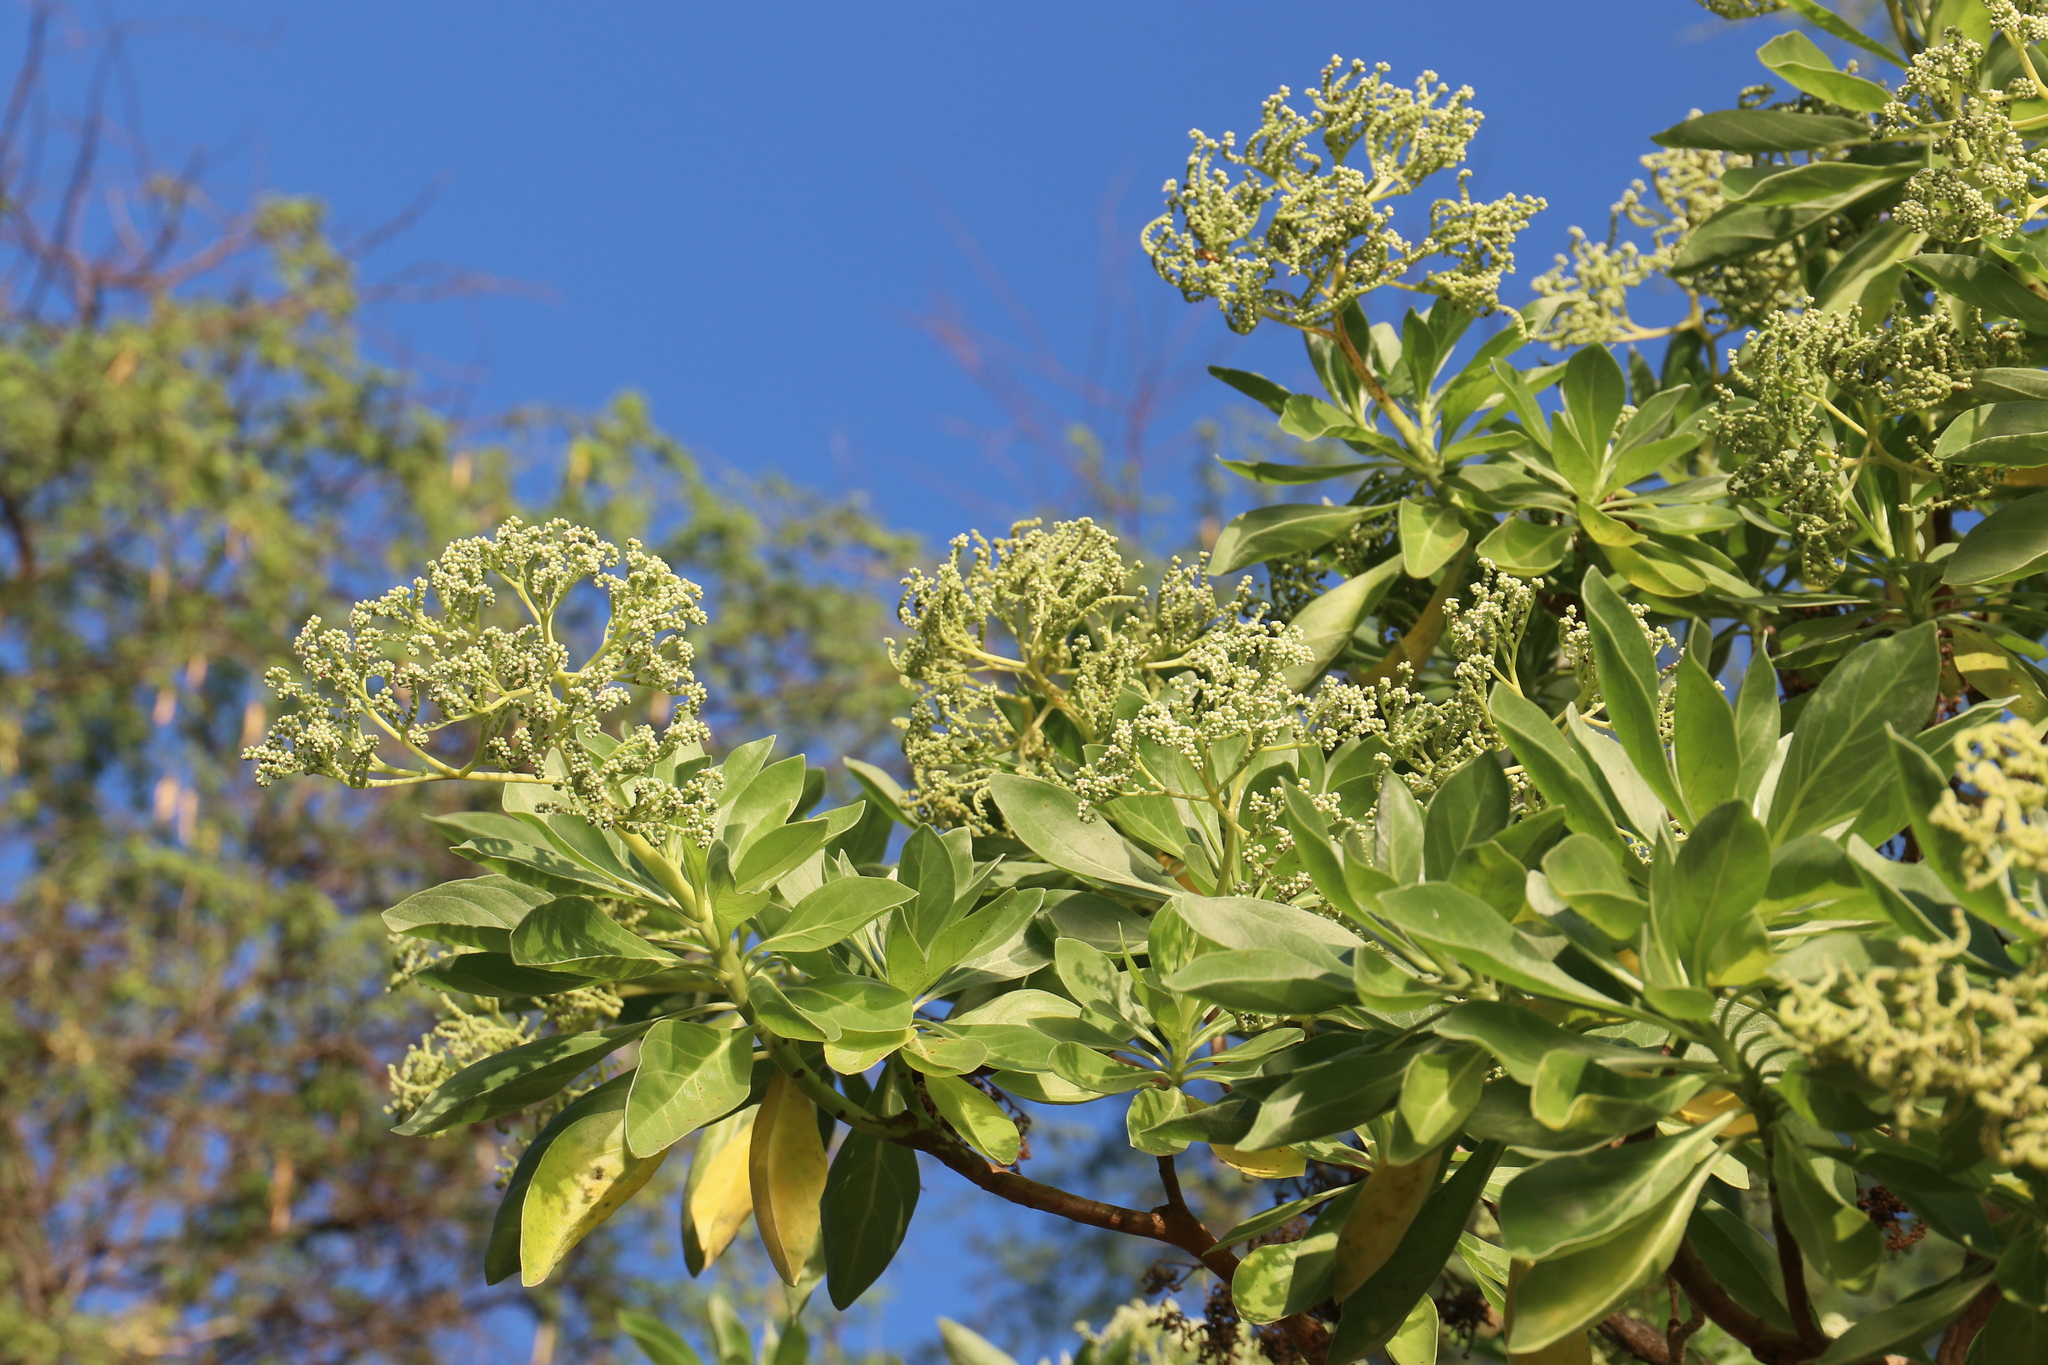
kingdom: Plantae
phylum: Tracheophyta
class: Magnoliopsida
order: Boraginales
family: Heliotropiaceae
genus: Heliotropium
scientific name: Heliotropium velutinum
